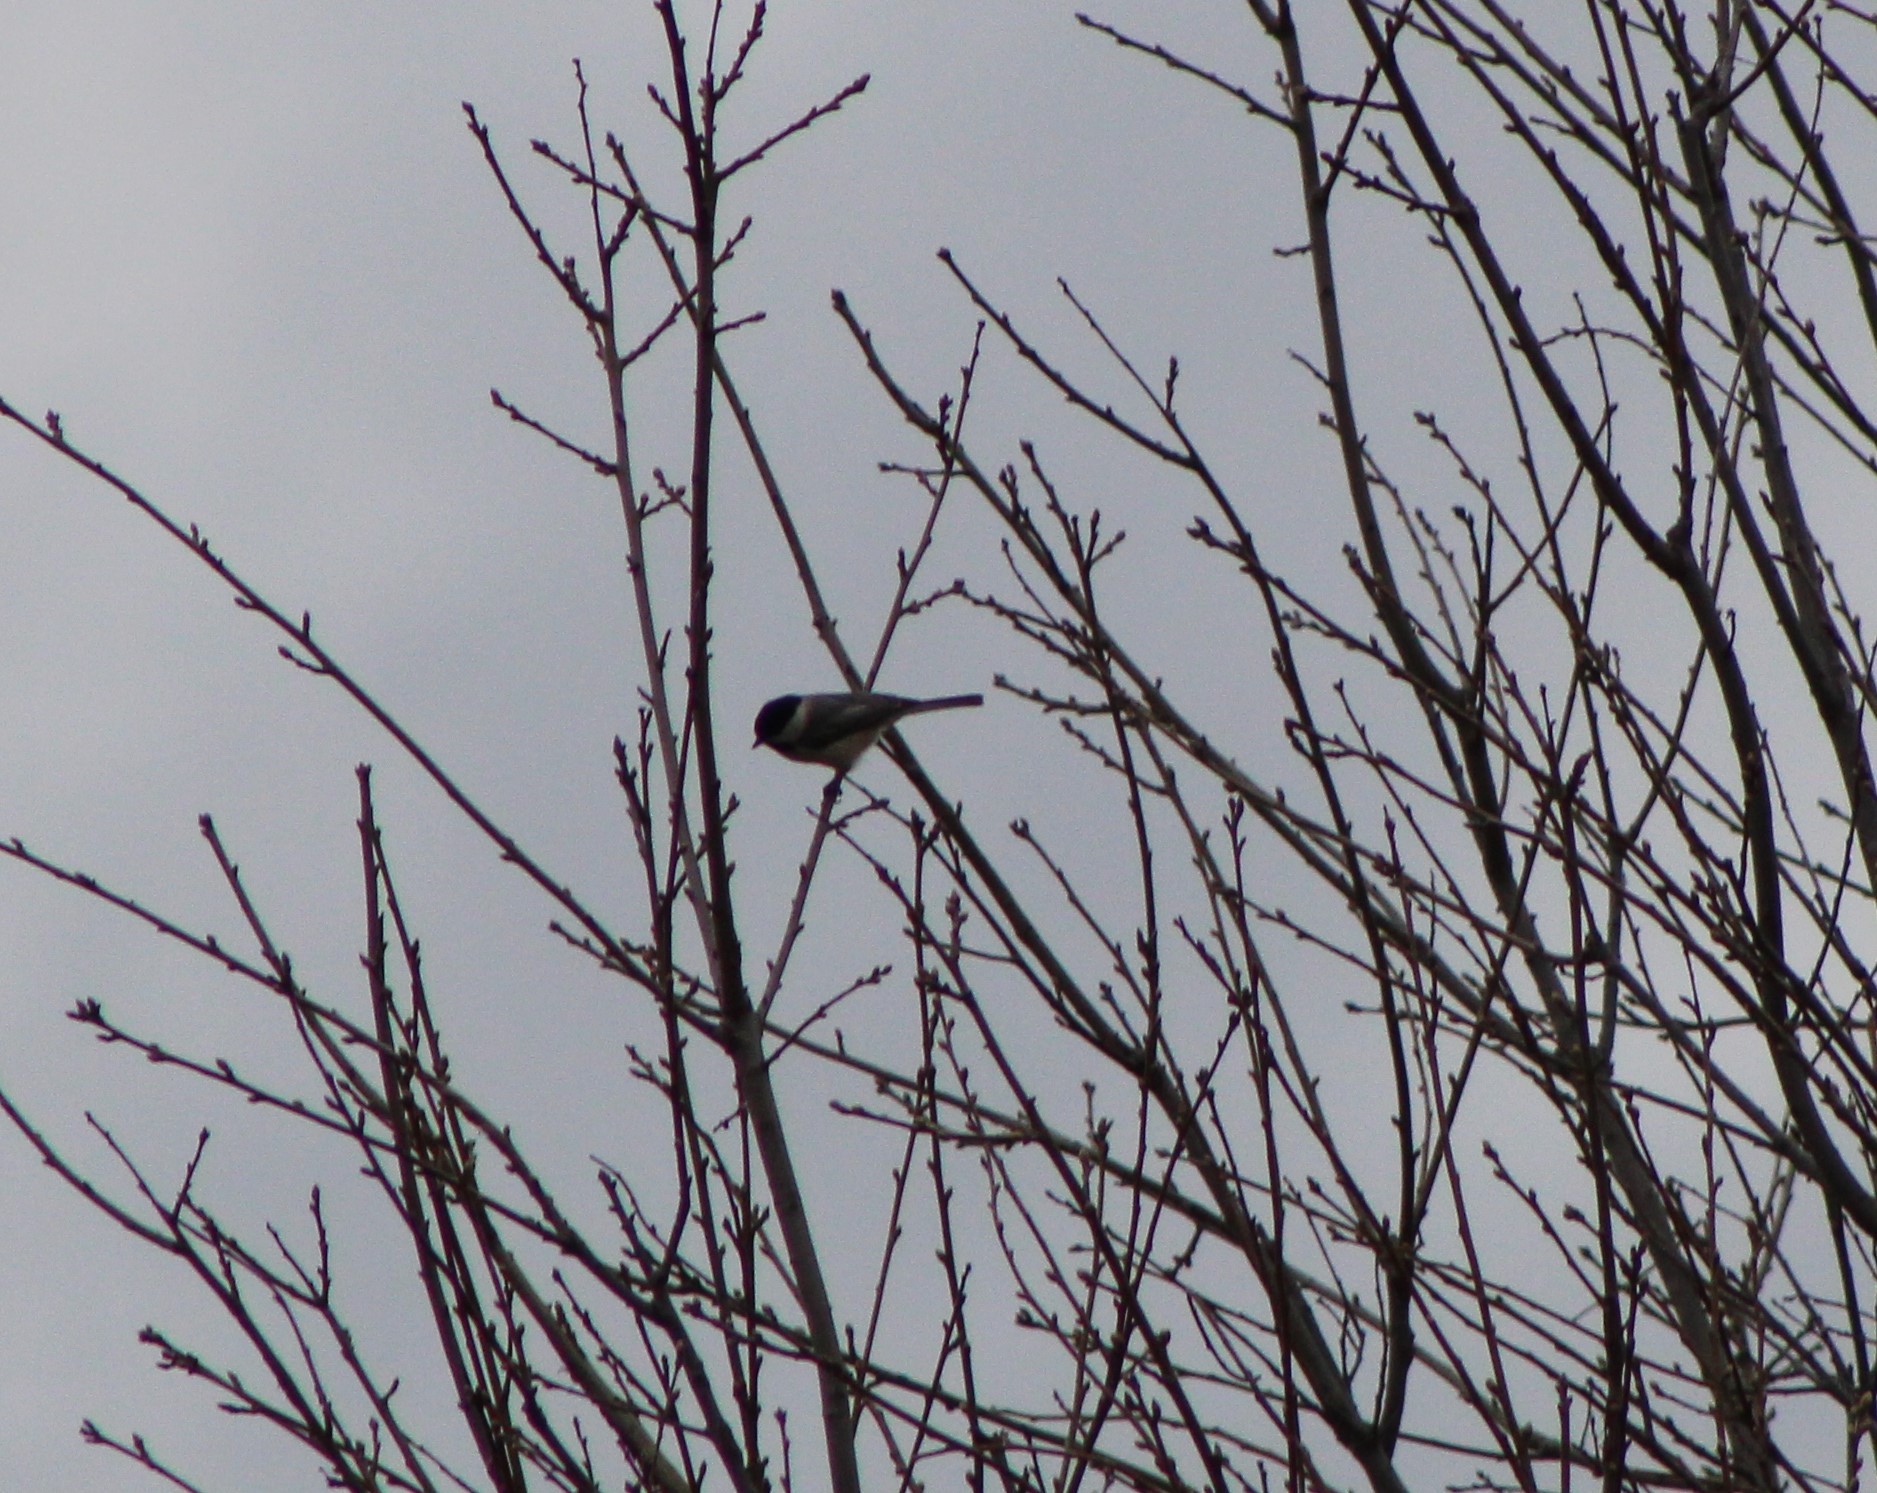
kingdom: Animalia
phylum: Chordata
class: Aves
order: Passeriformes
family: Paridae
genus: Poecile
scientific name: Poecile carolinensis
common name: Carolina chickadee
